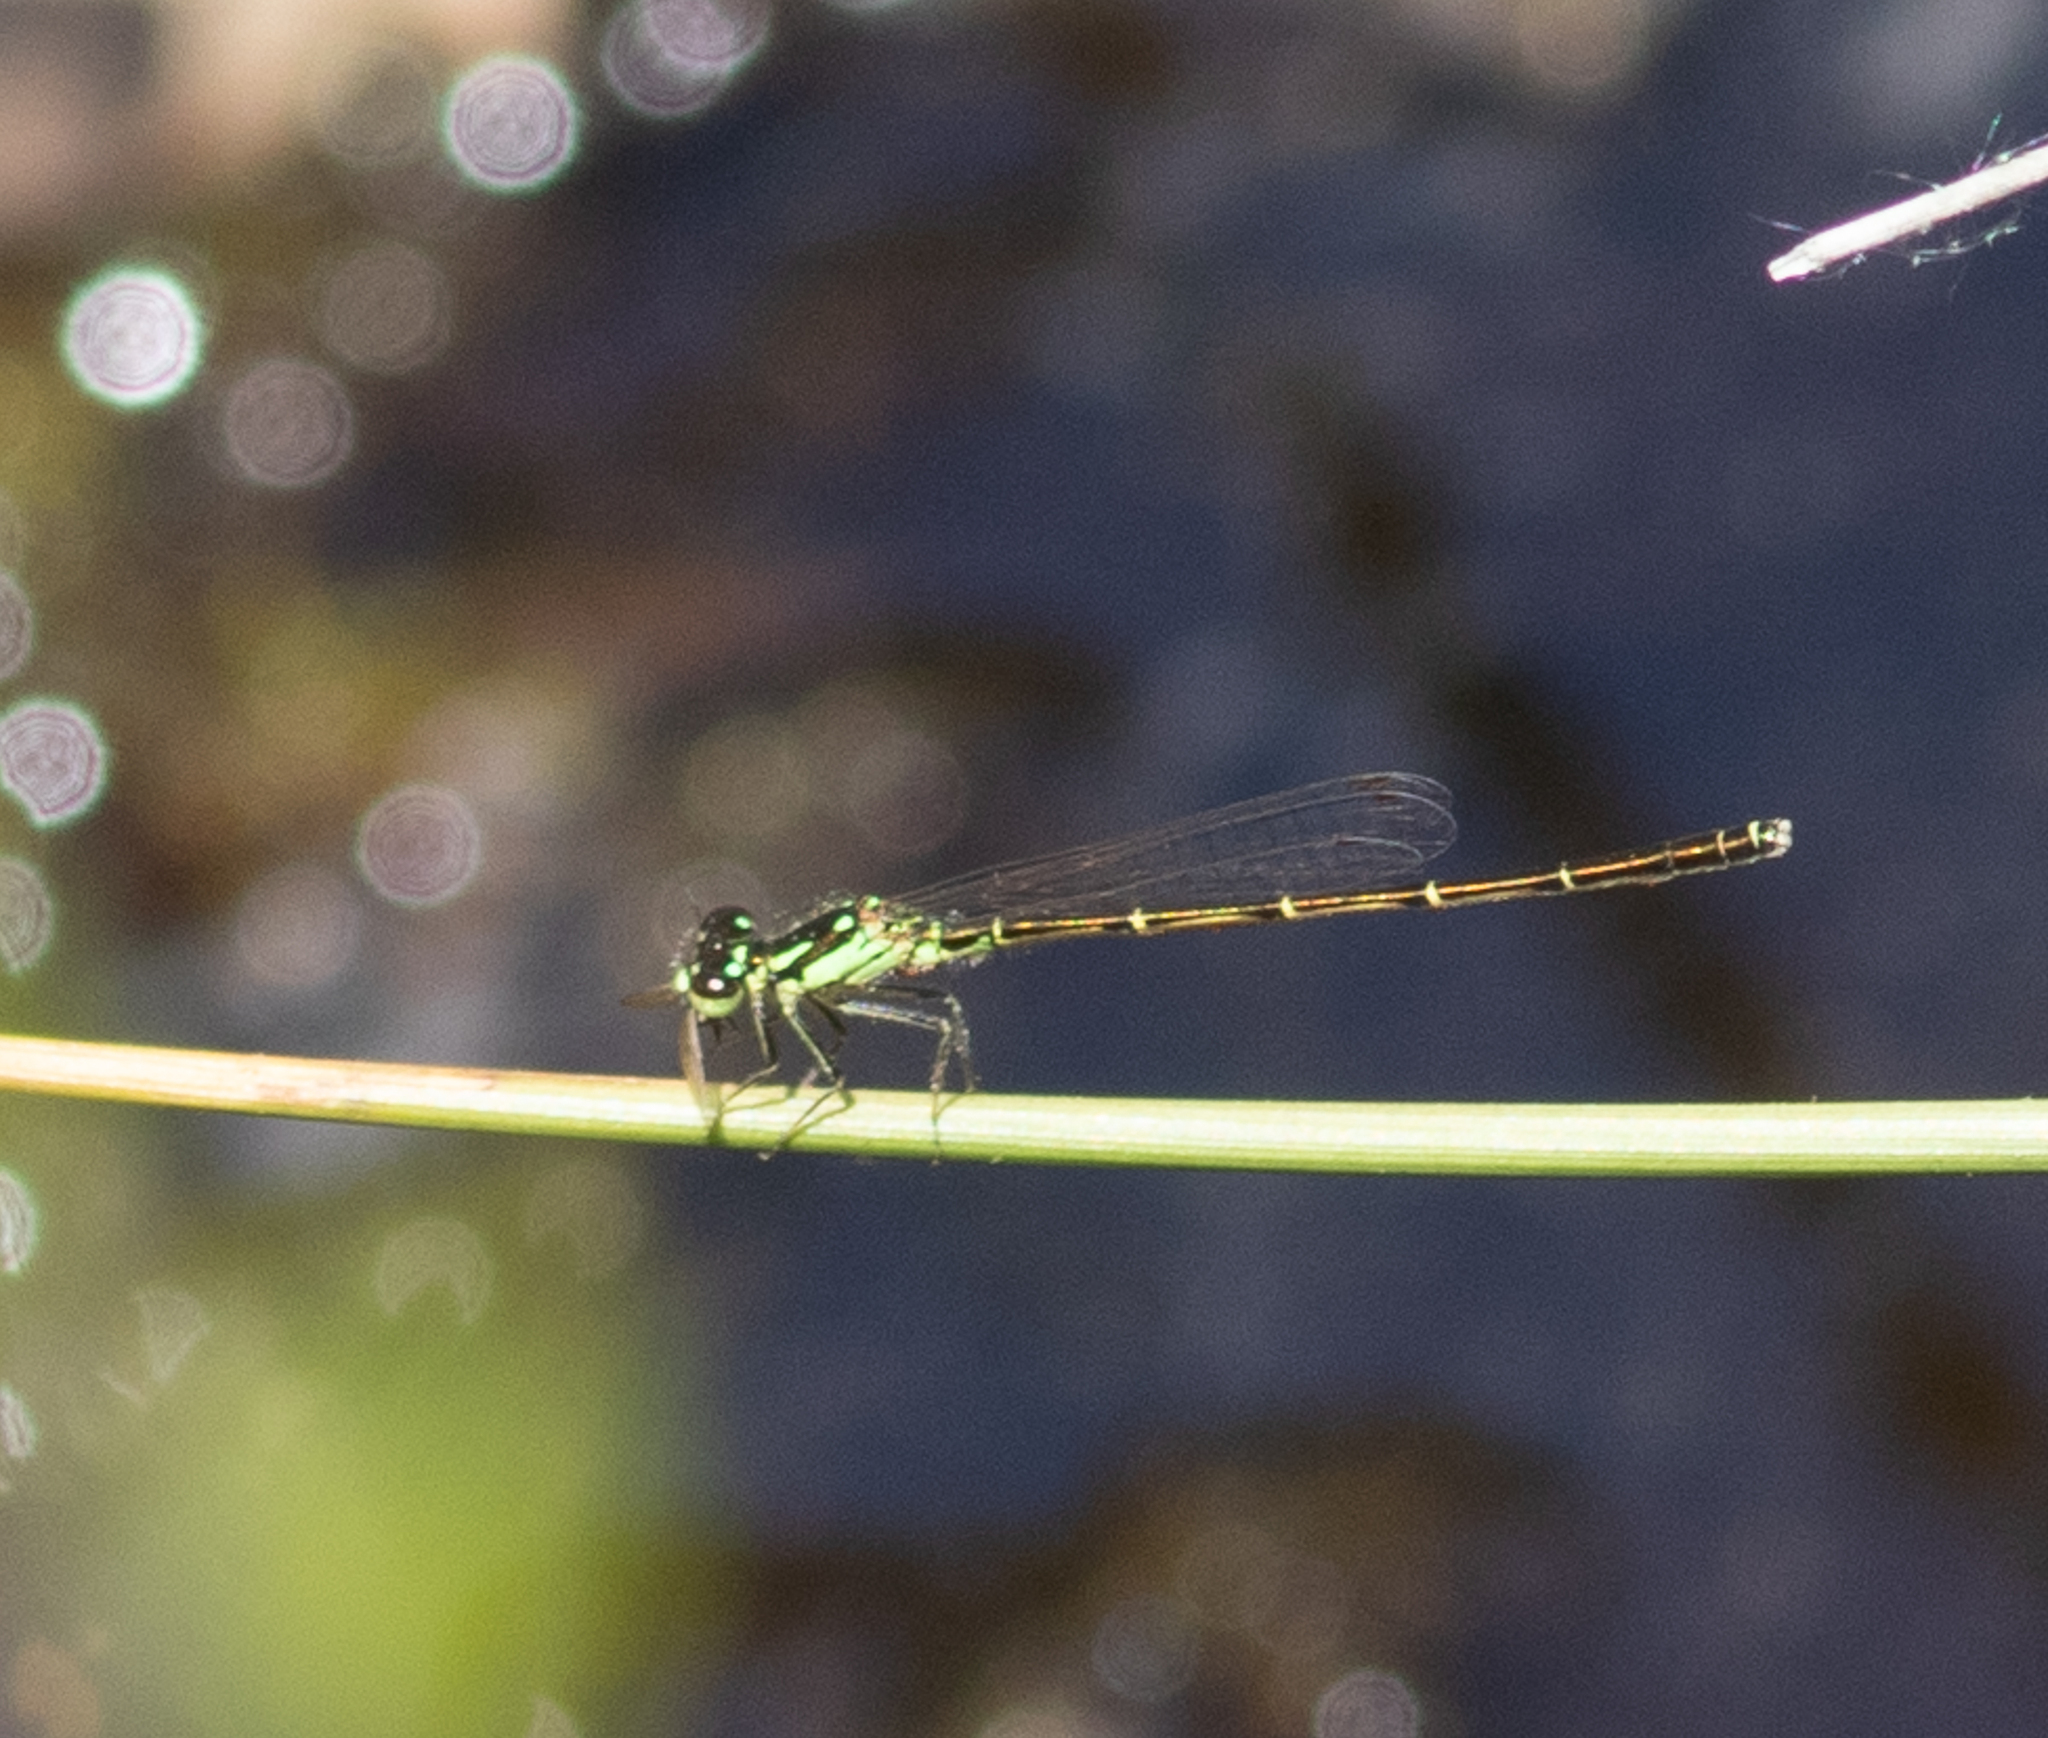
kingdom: Animalia
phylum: Arthropoda
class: Insecta
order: Odonata
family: Coenagrionidae
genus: Ischnura
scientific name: Ischnura posita
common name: Fragile forktail
